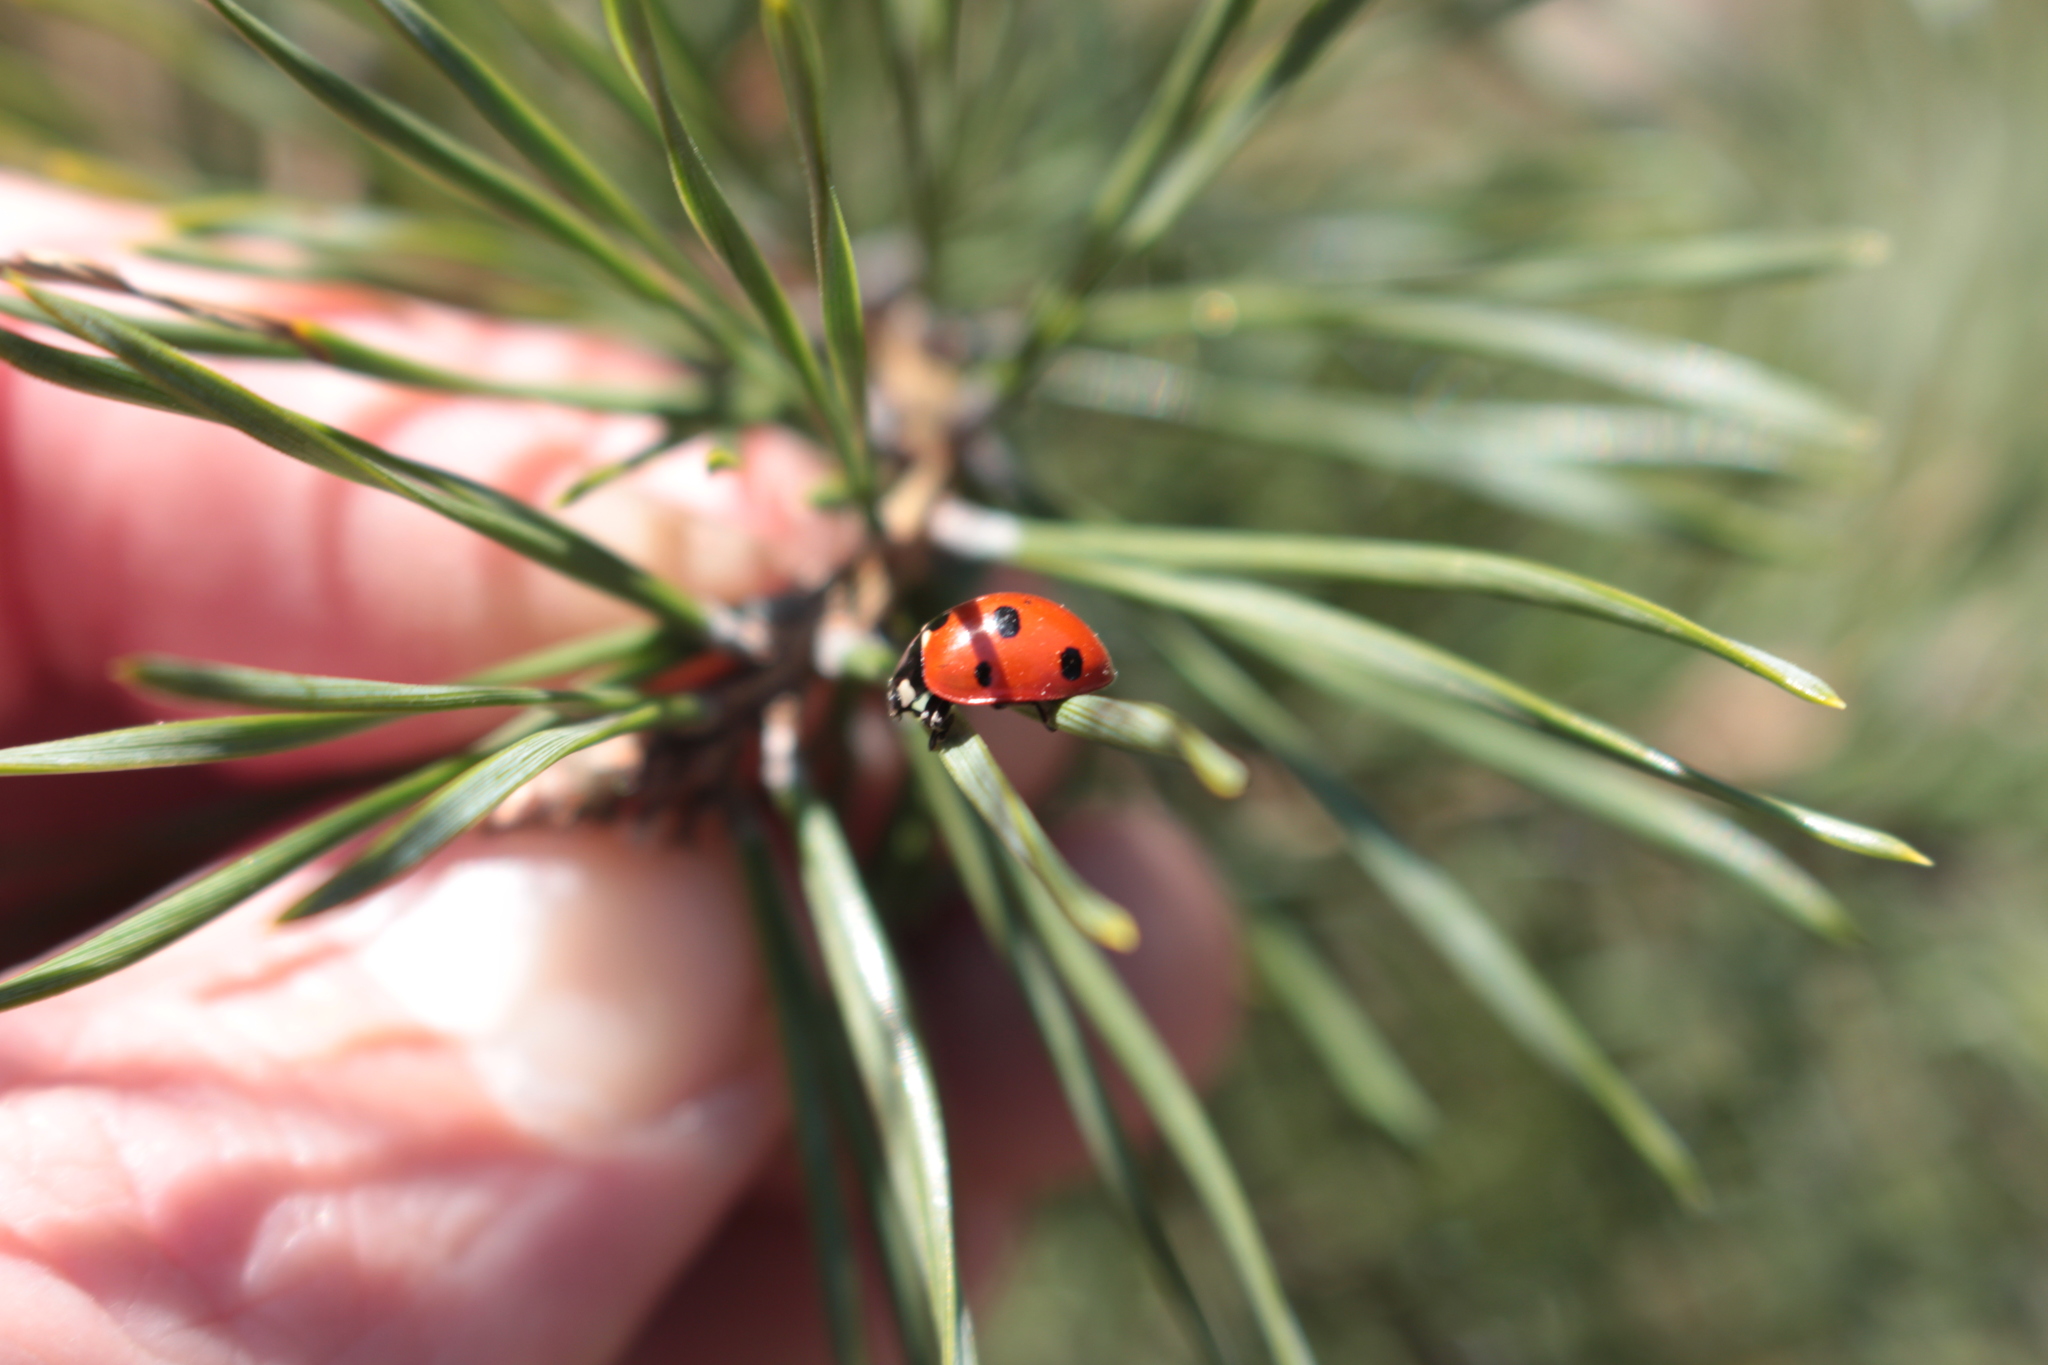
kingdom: Animalia
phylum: Arthropoda
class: Insecta
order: Coleoptera
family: Coccinellidae
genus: Coccinella
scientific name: Coccinella septempunctata
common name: Sevenspotted lady beetle
